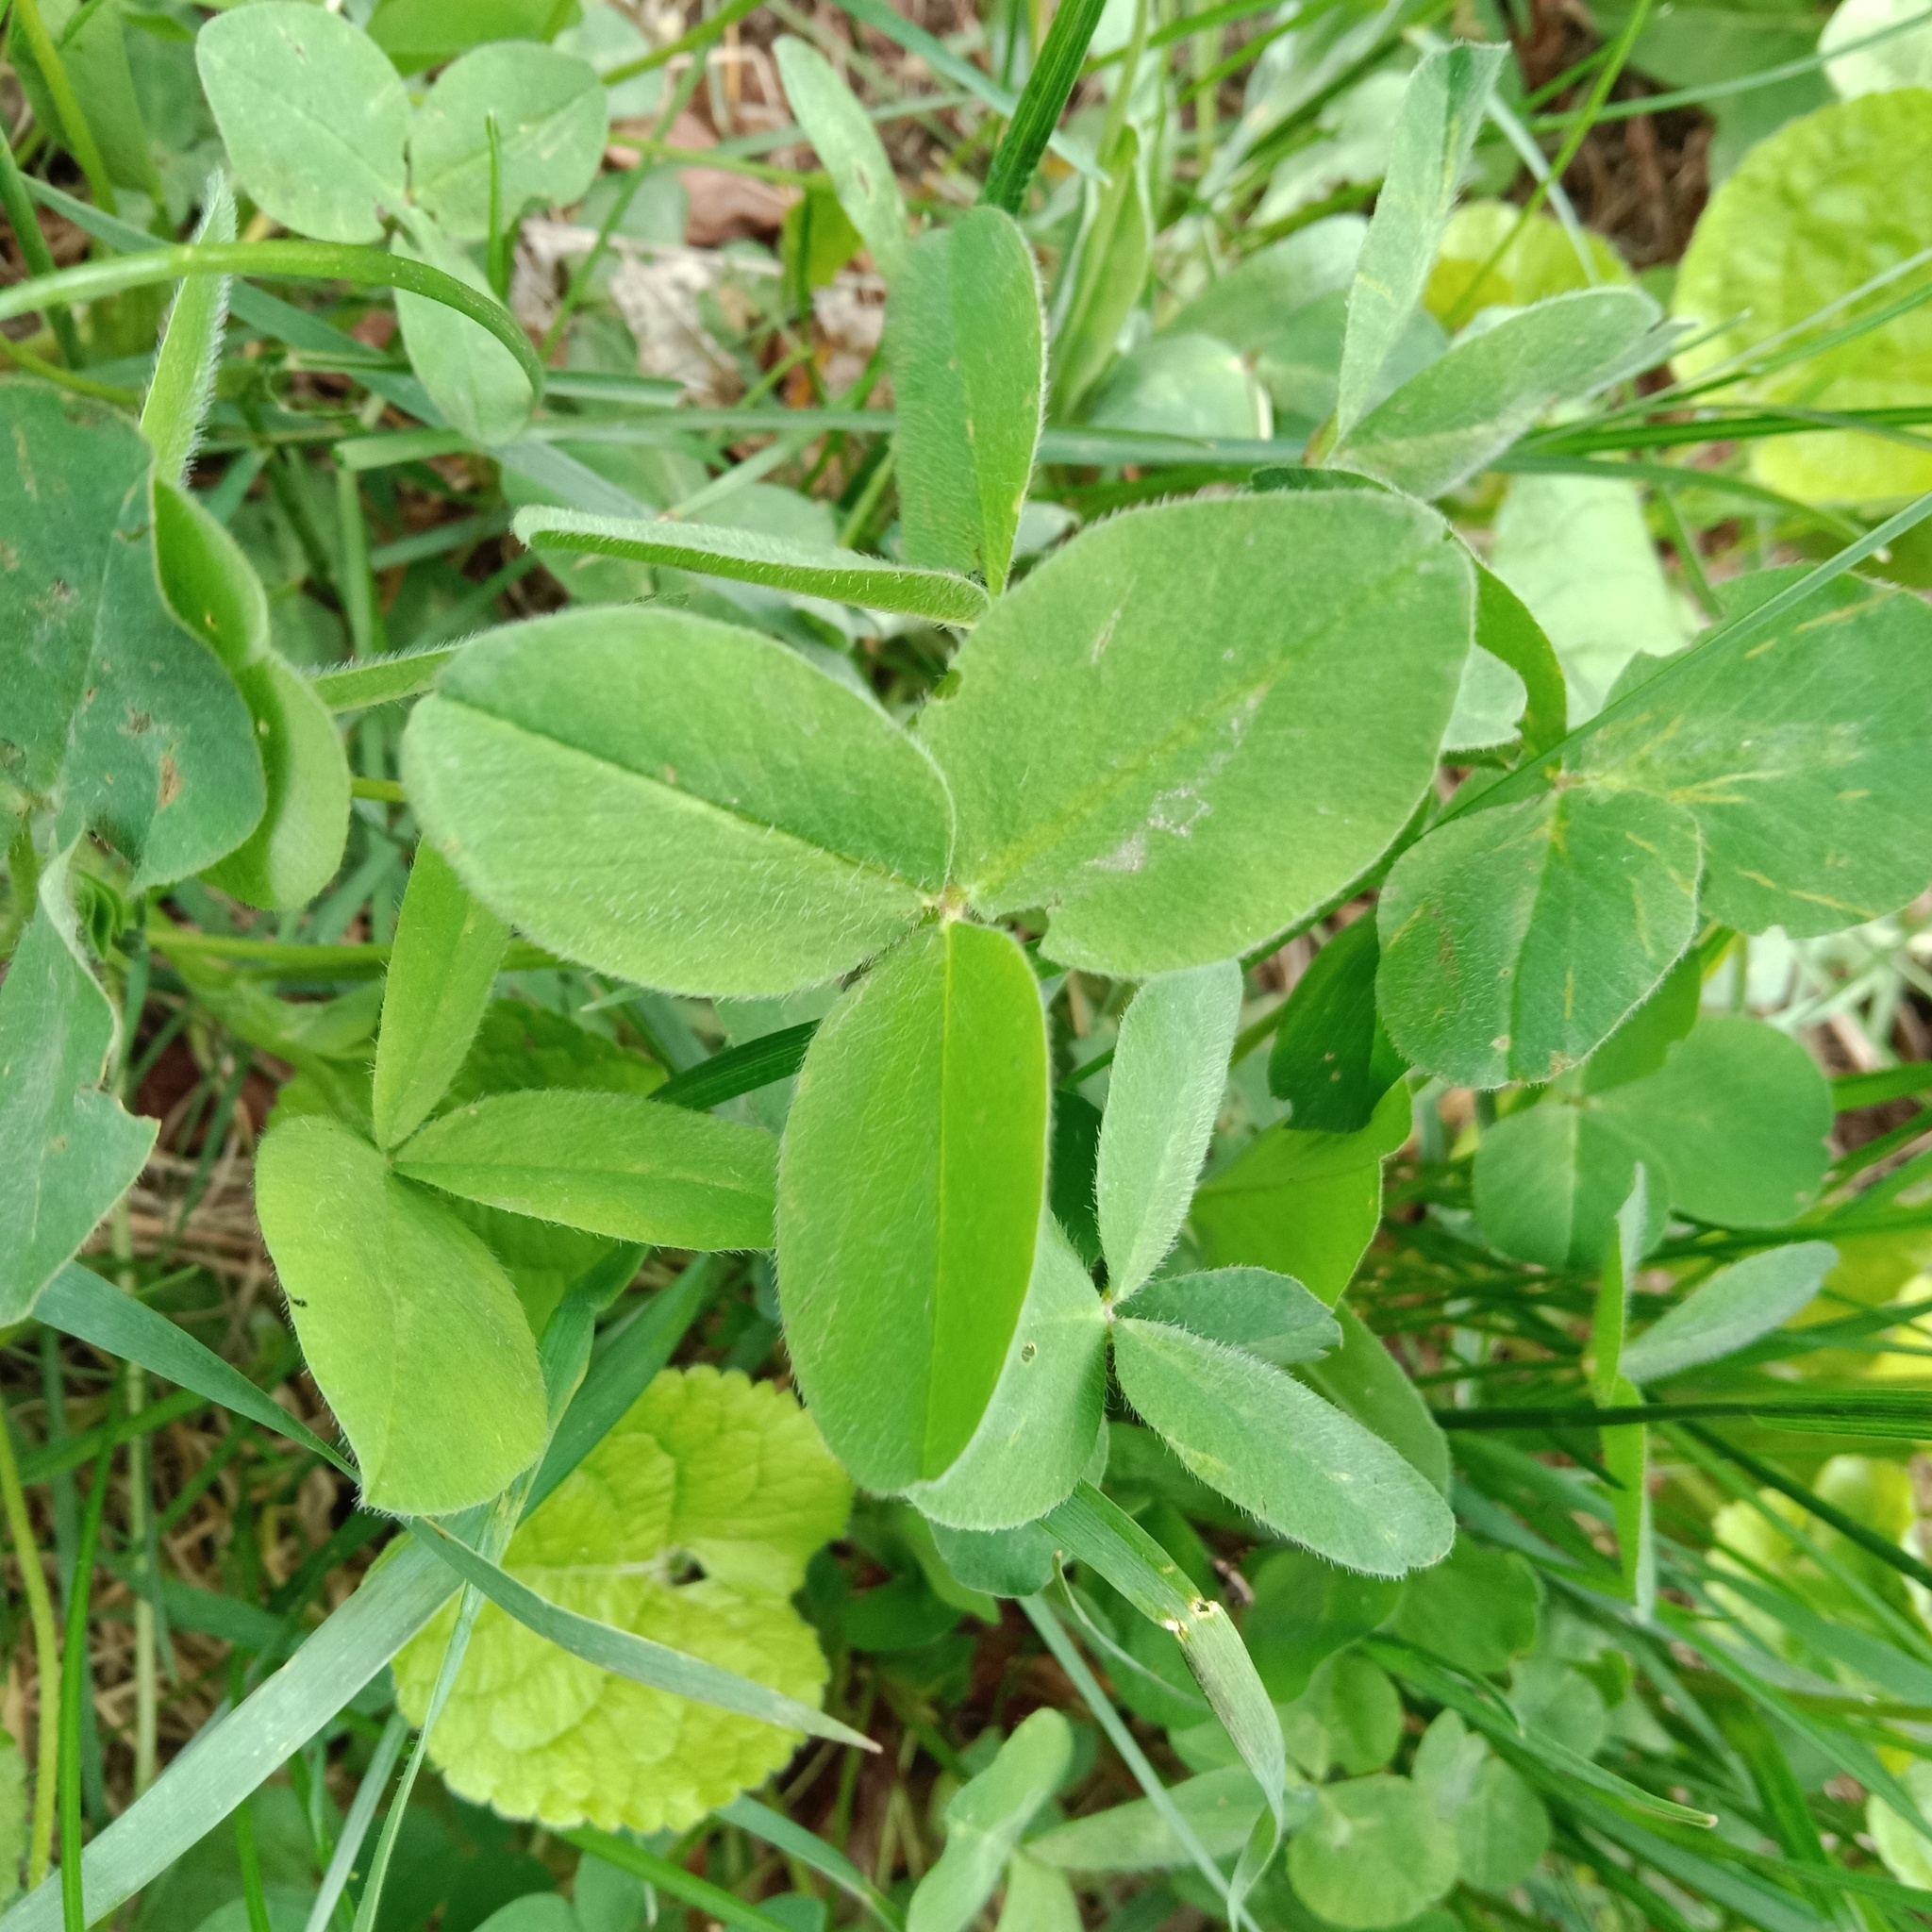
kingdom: Plantae
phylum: Tracheophyta
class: Magnoliopsida
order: Fabales
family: Fabaceae
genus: Trifolium
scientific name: Trifolium pratense
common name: Red clover
